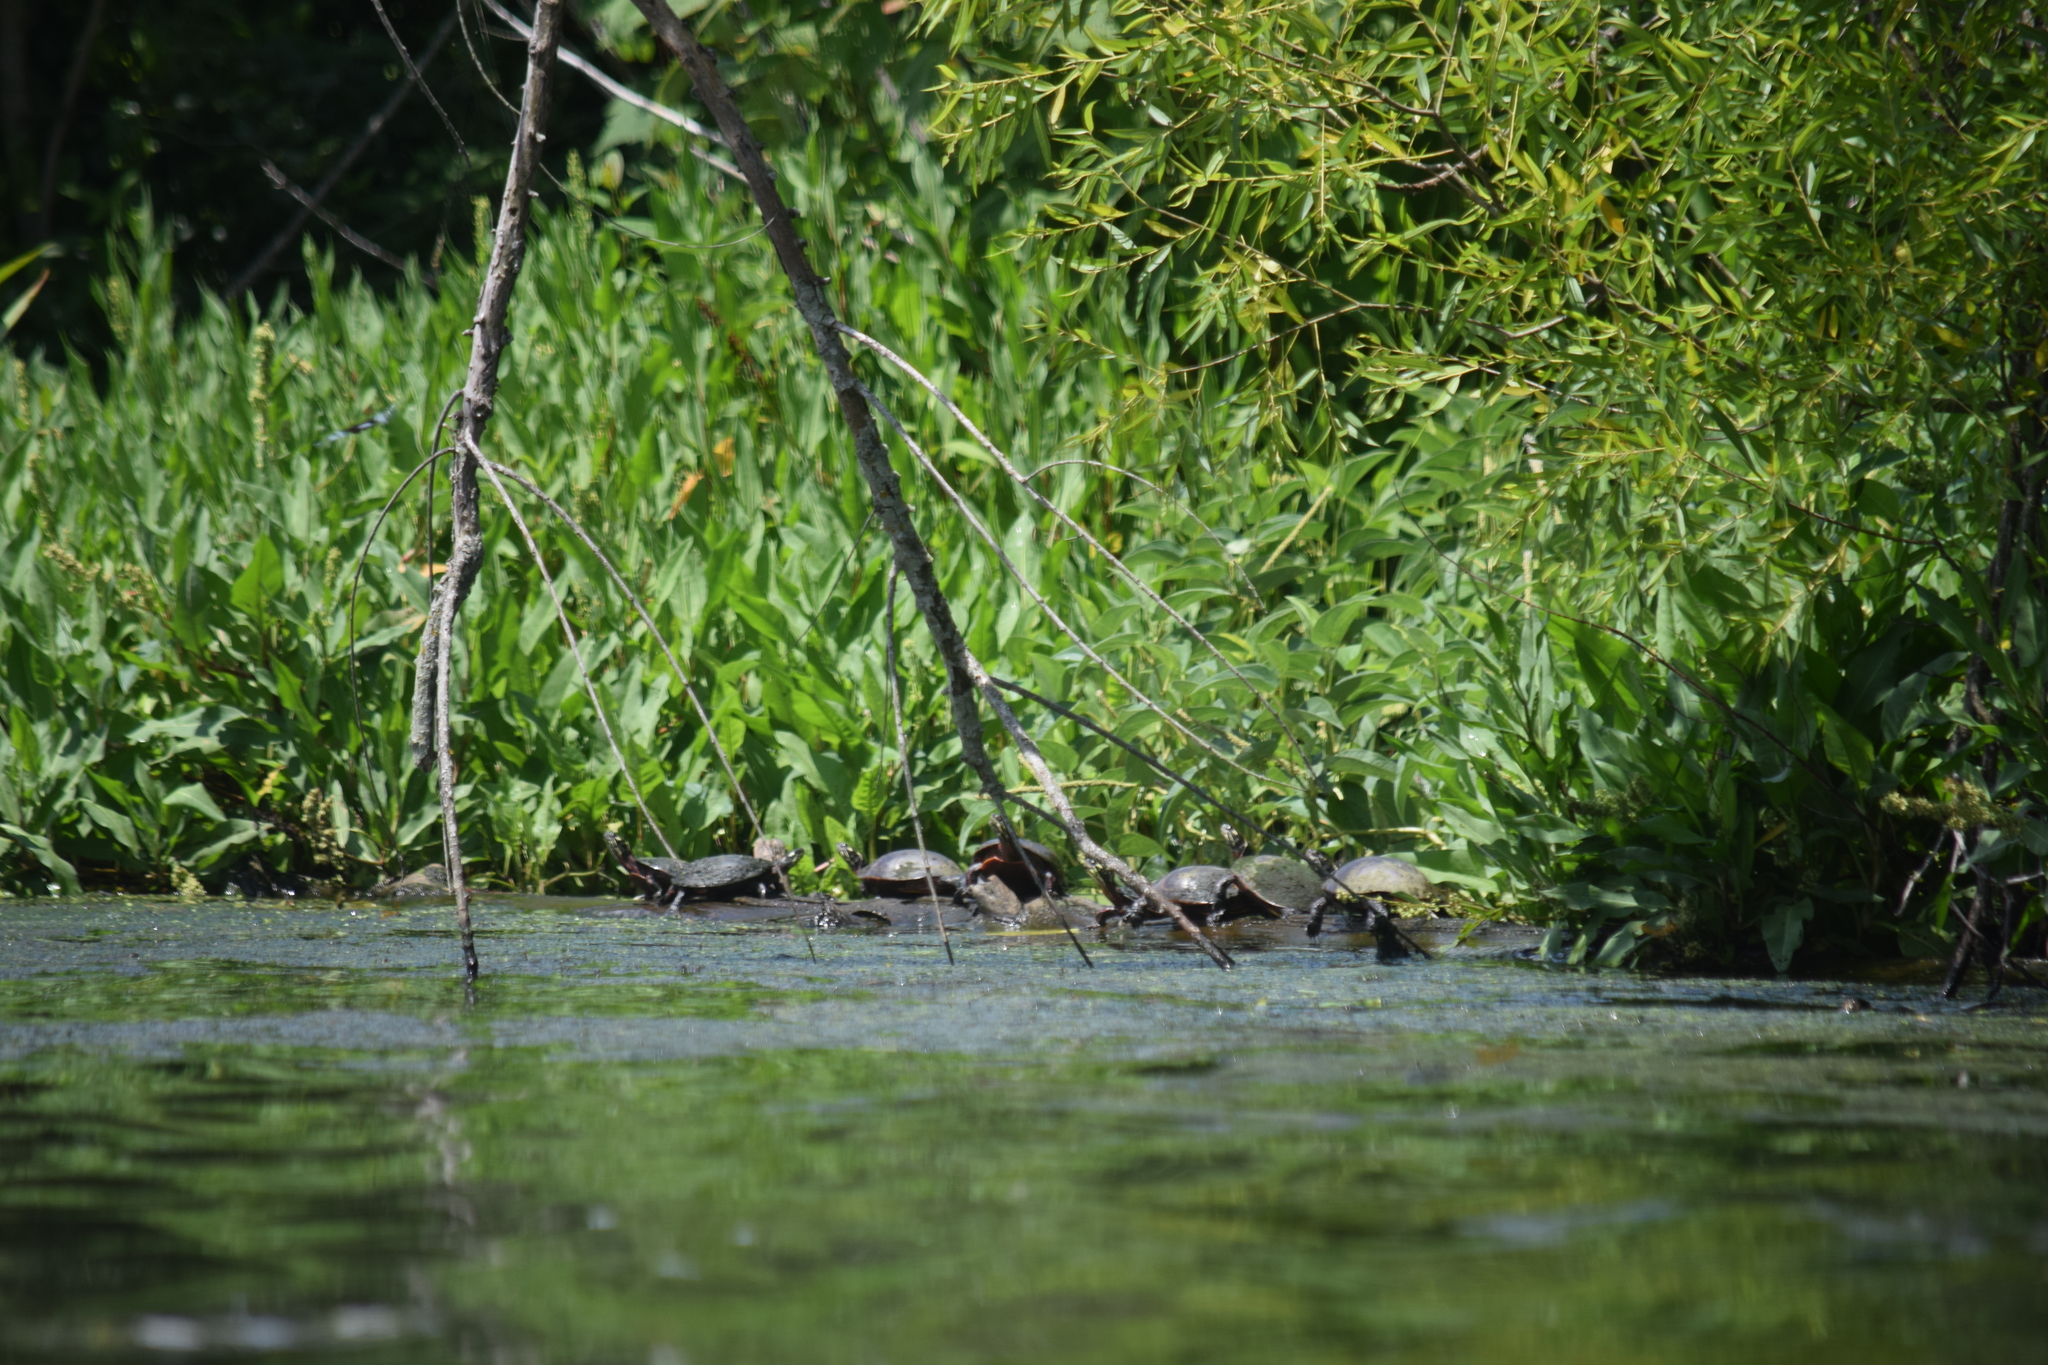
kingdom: Animalia
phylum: Chordata
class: Testudines
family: Emydidae
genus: Chrysemys
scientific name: Chrysemys picta
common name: Painted turtle
